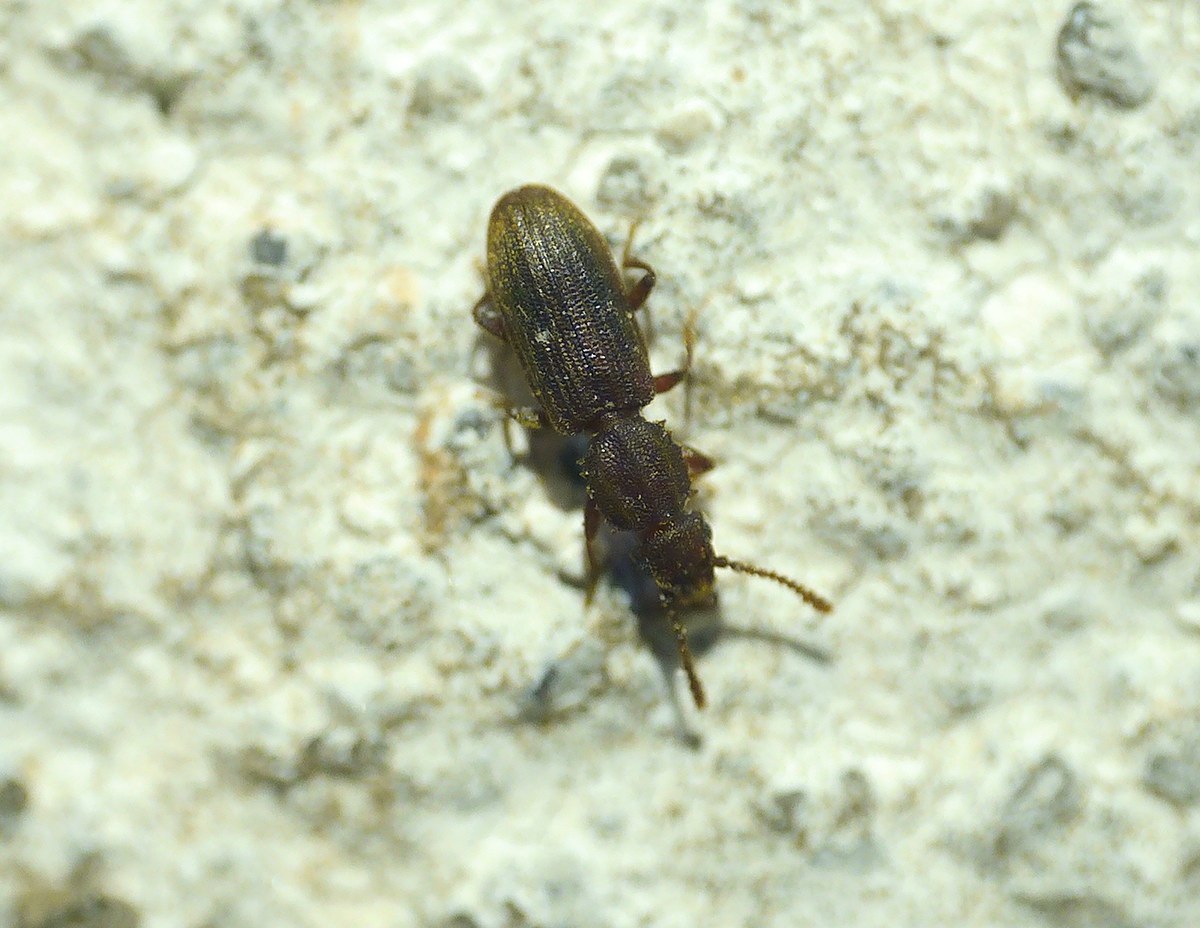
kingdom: Animalia
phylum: Arthropoda
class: Insecta
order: Coleoptera
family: Silvanidae
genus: Oryzaephilus
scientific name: Oryzaephilus surinamensis
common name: Sawtoothed grain beetle
